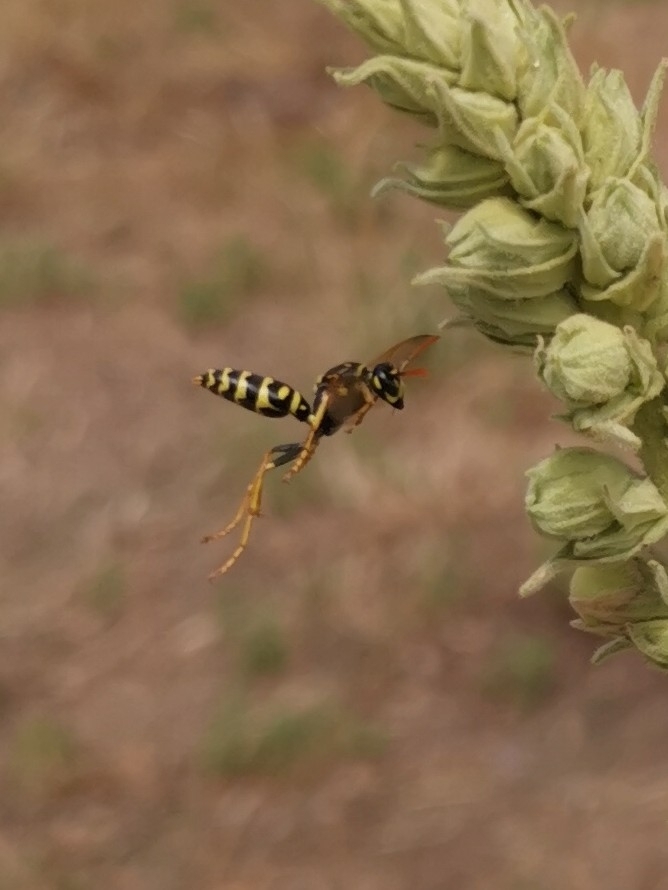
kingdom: Animalia
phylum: Arthropoda
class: Insecta
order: Hymenoptera
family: Eumenidae
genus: Polistes
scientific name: Polistes dominula
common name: Paper wasp
